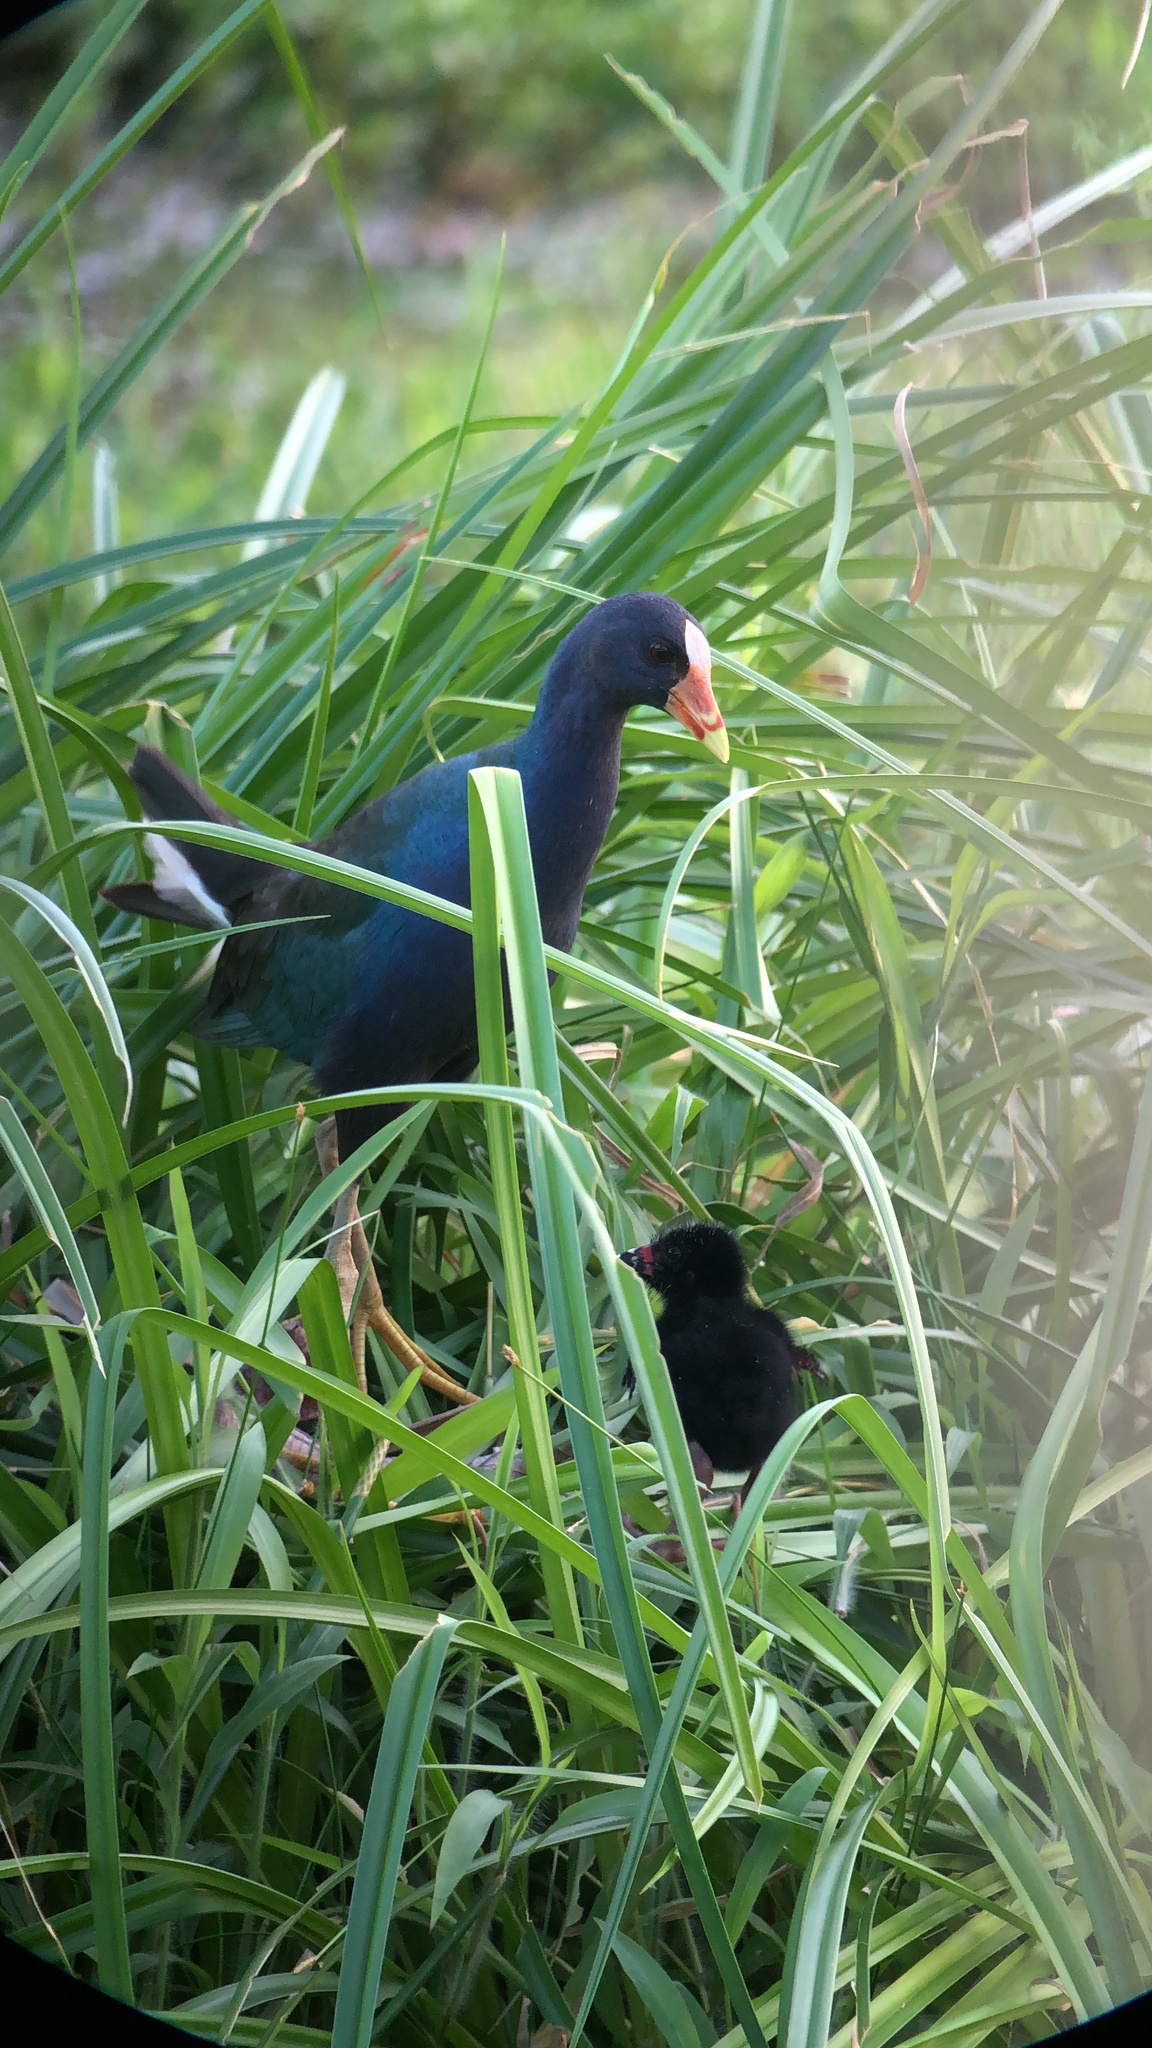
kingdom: Animalia
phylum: Chordata
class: Aves
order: Gruiformes
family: Rallidae
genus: Porphyrio
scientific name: Porphyrio martinica
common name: Purple gallinule
